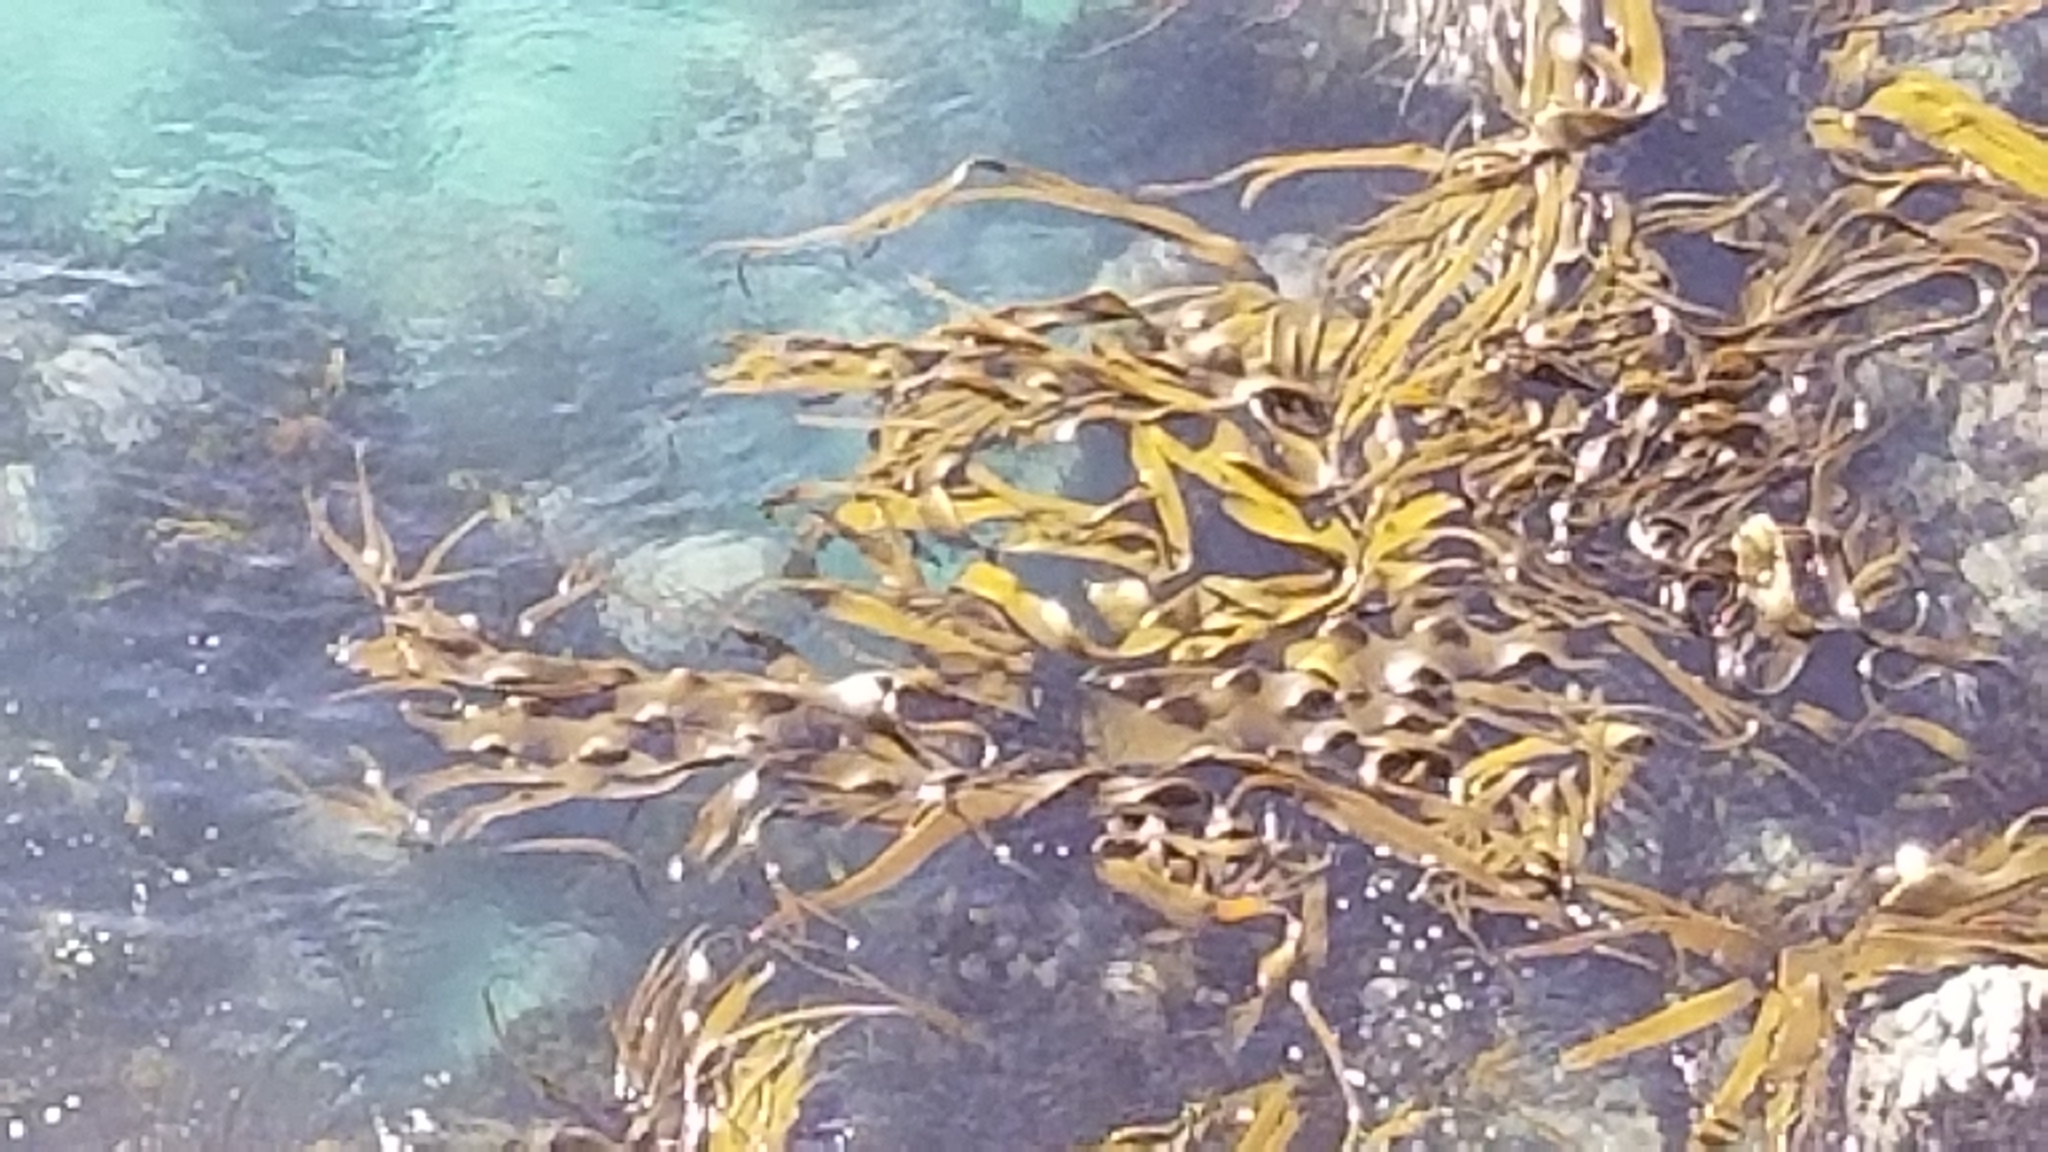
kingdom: Chromista
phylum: Ochrophyta
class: Phaeophyceae
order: Fucales
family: Durvillaeaceae
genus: Durvillaea
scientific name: Durvillaea antarctica
